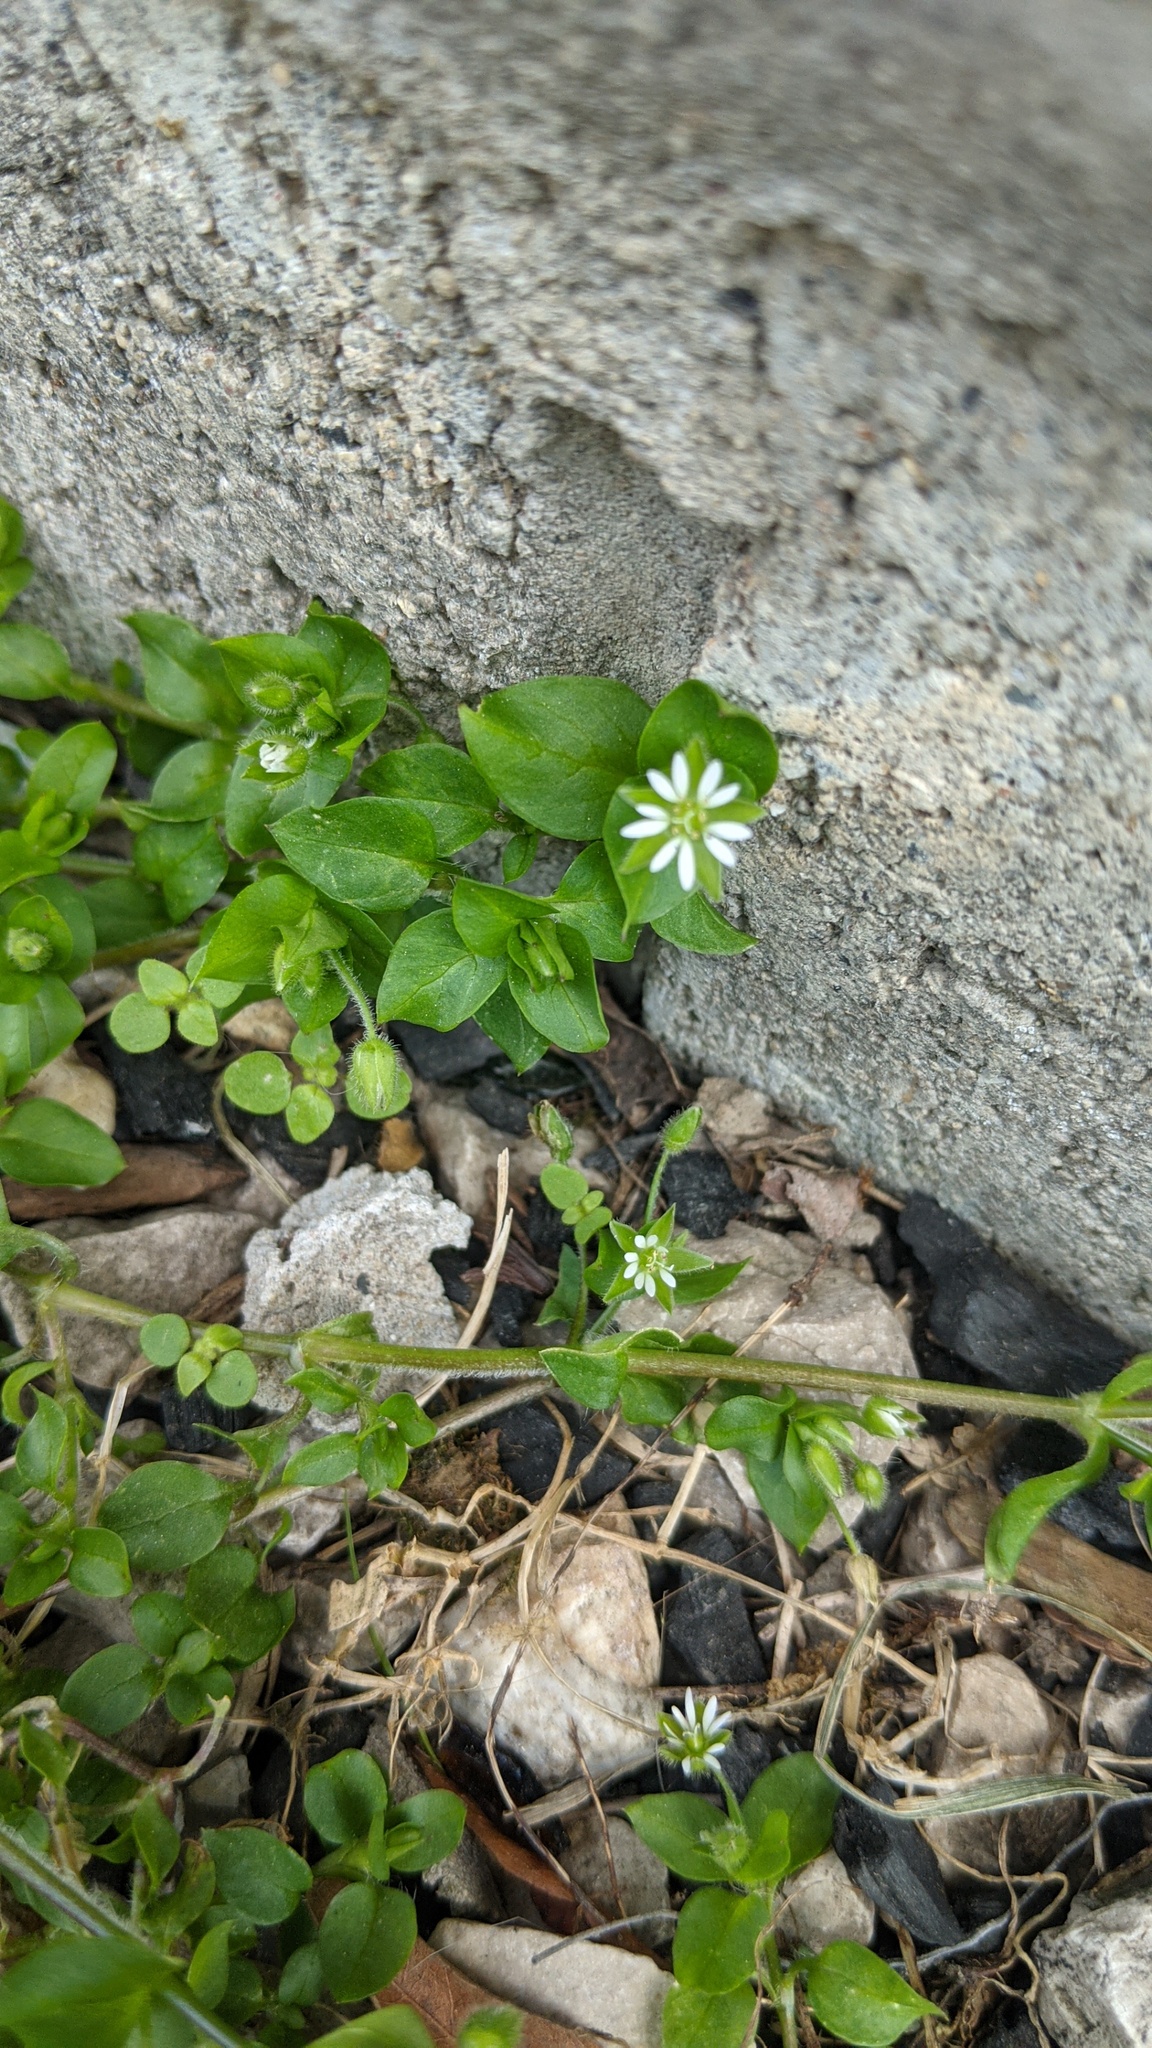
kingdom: Plantae
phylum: Tracheophyta
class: Magnoliopsida
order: Caryophyllales
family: Caryophyllaceae
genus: Stellaria
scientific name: Stellaria media
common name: Common chickweed
